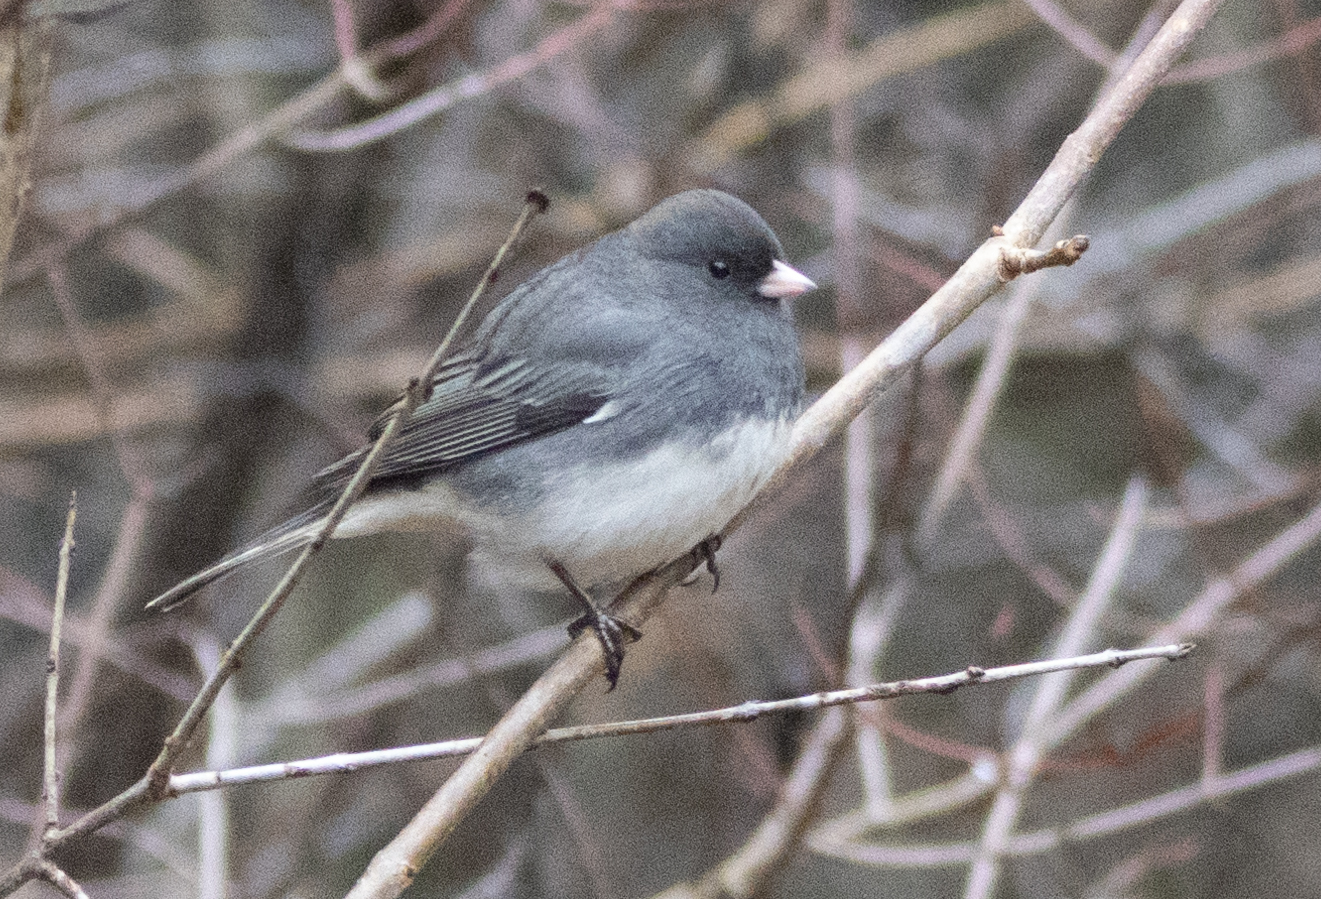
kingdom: Animalia
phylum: Chordata
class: Aves
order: Passeriformes
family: Passerellidae
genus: Junco
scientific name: Junco hyemalis
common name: Dark-eyed junco
